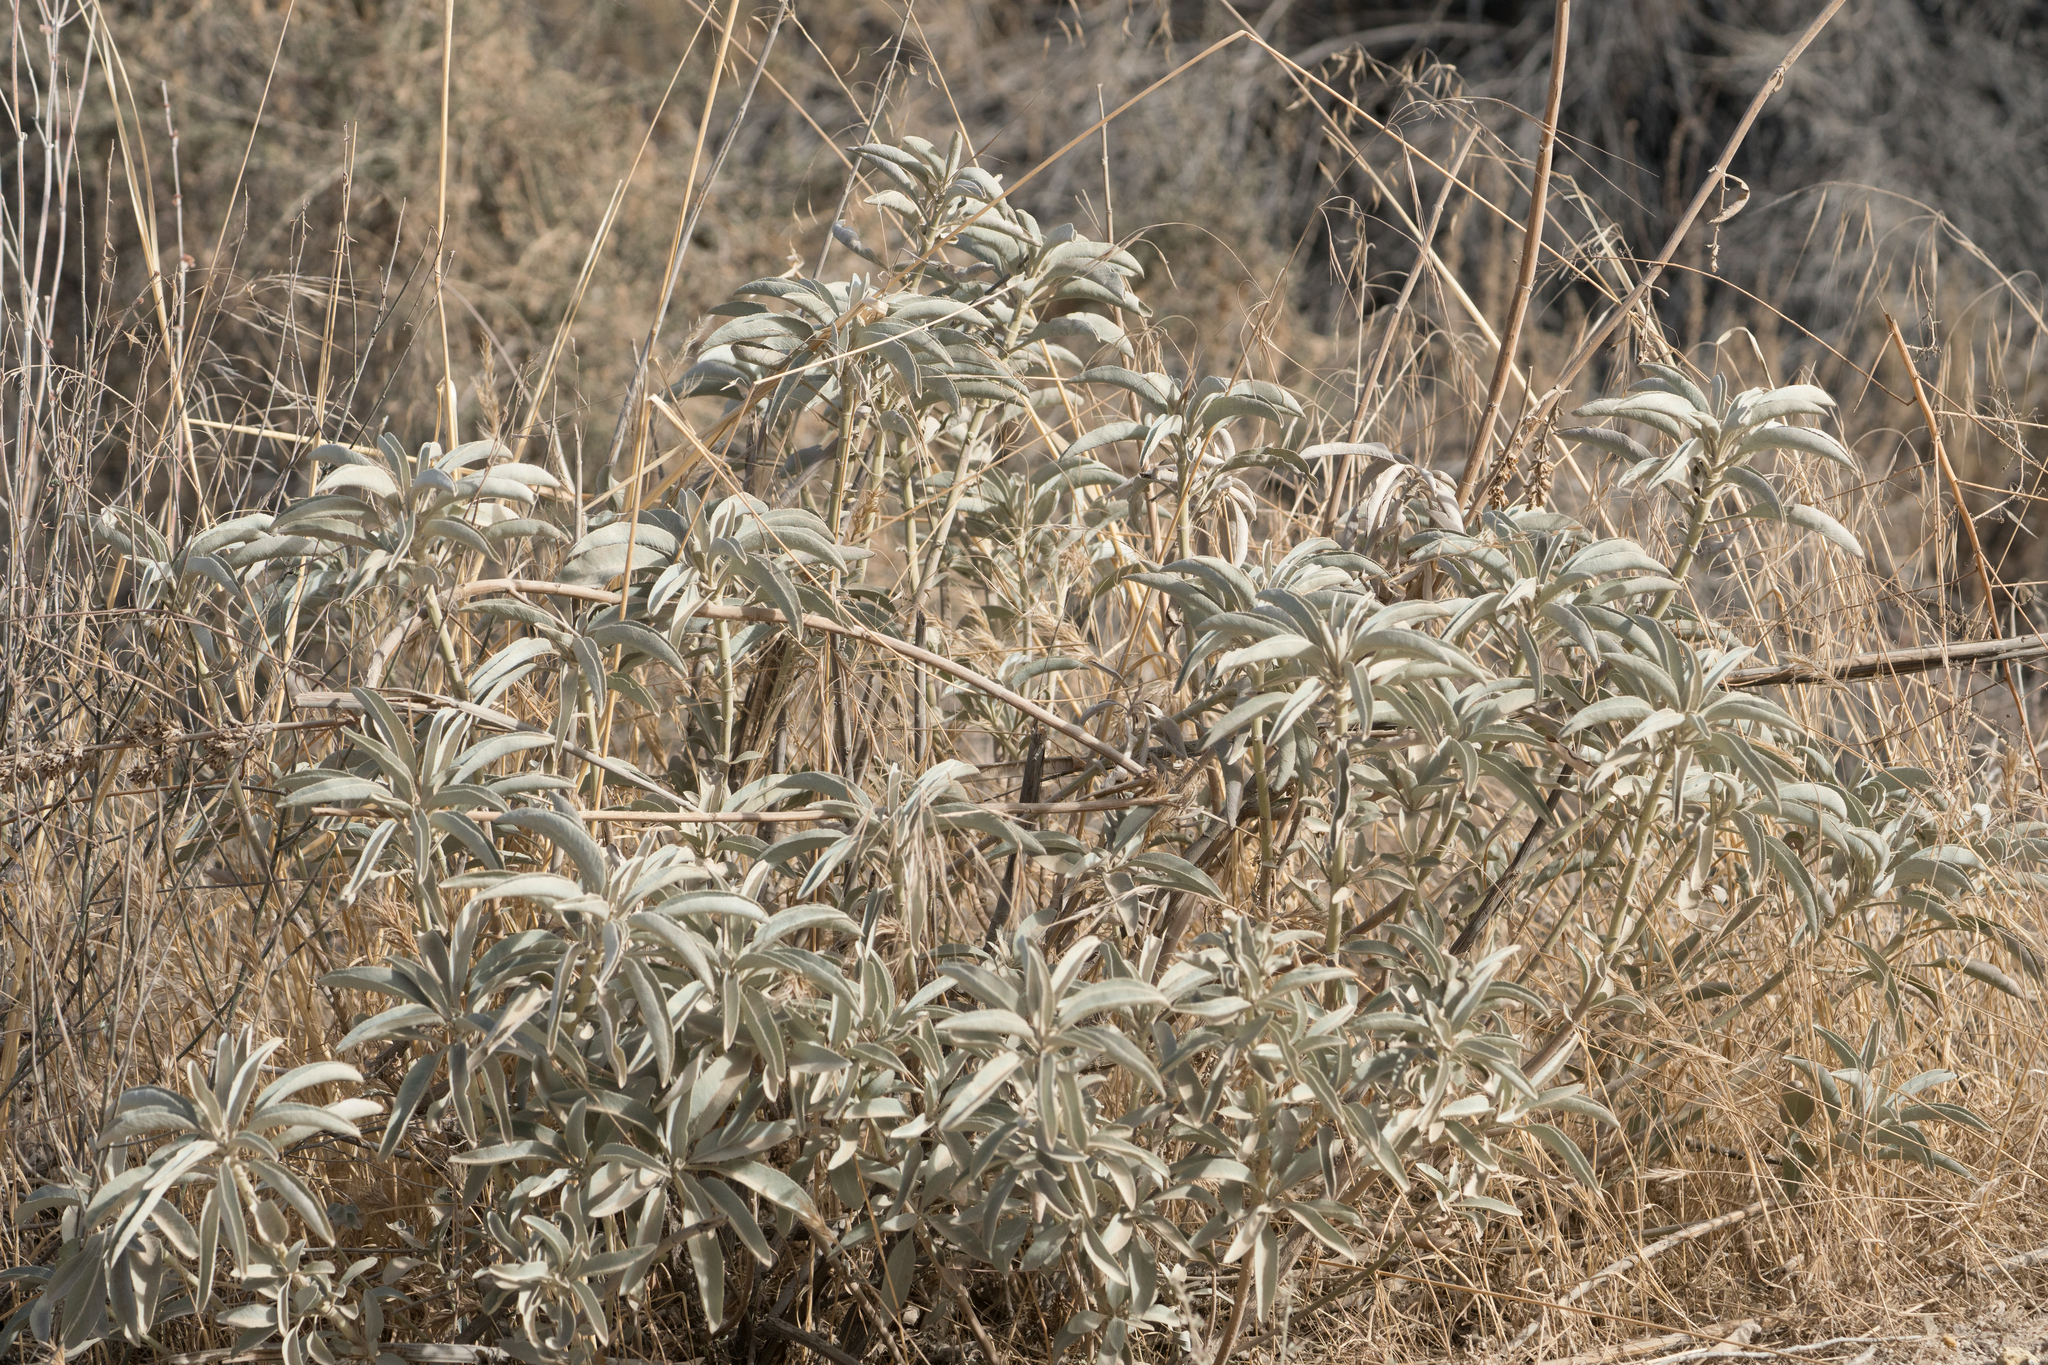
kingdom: Plantae
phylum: Tracheophyta
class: Magnoliopsida
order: Lamiales
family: Lamiaceae
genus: Salvia
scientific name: Salvia apiana
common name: White sage
